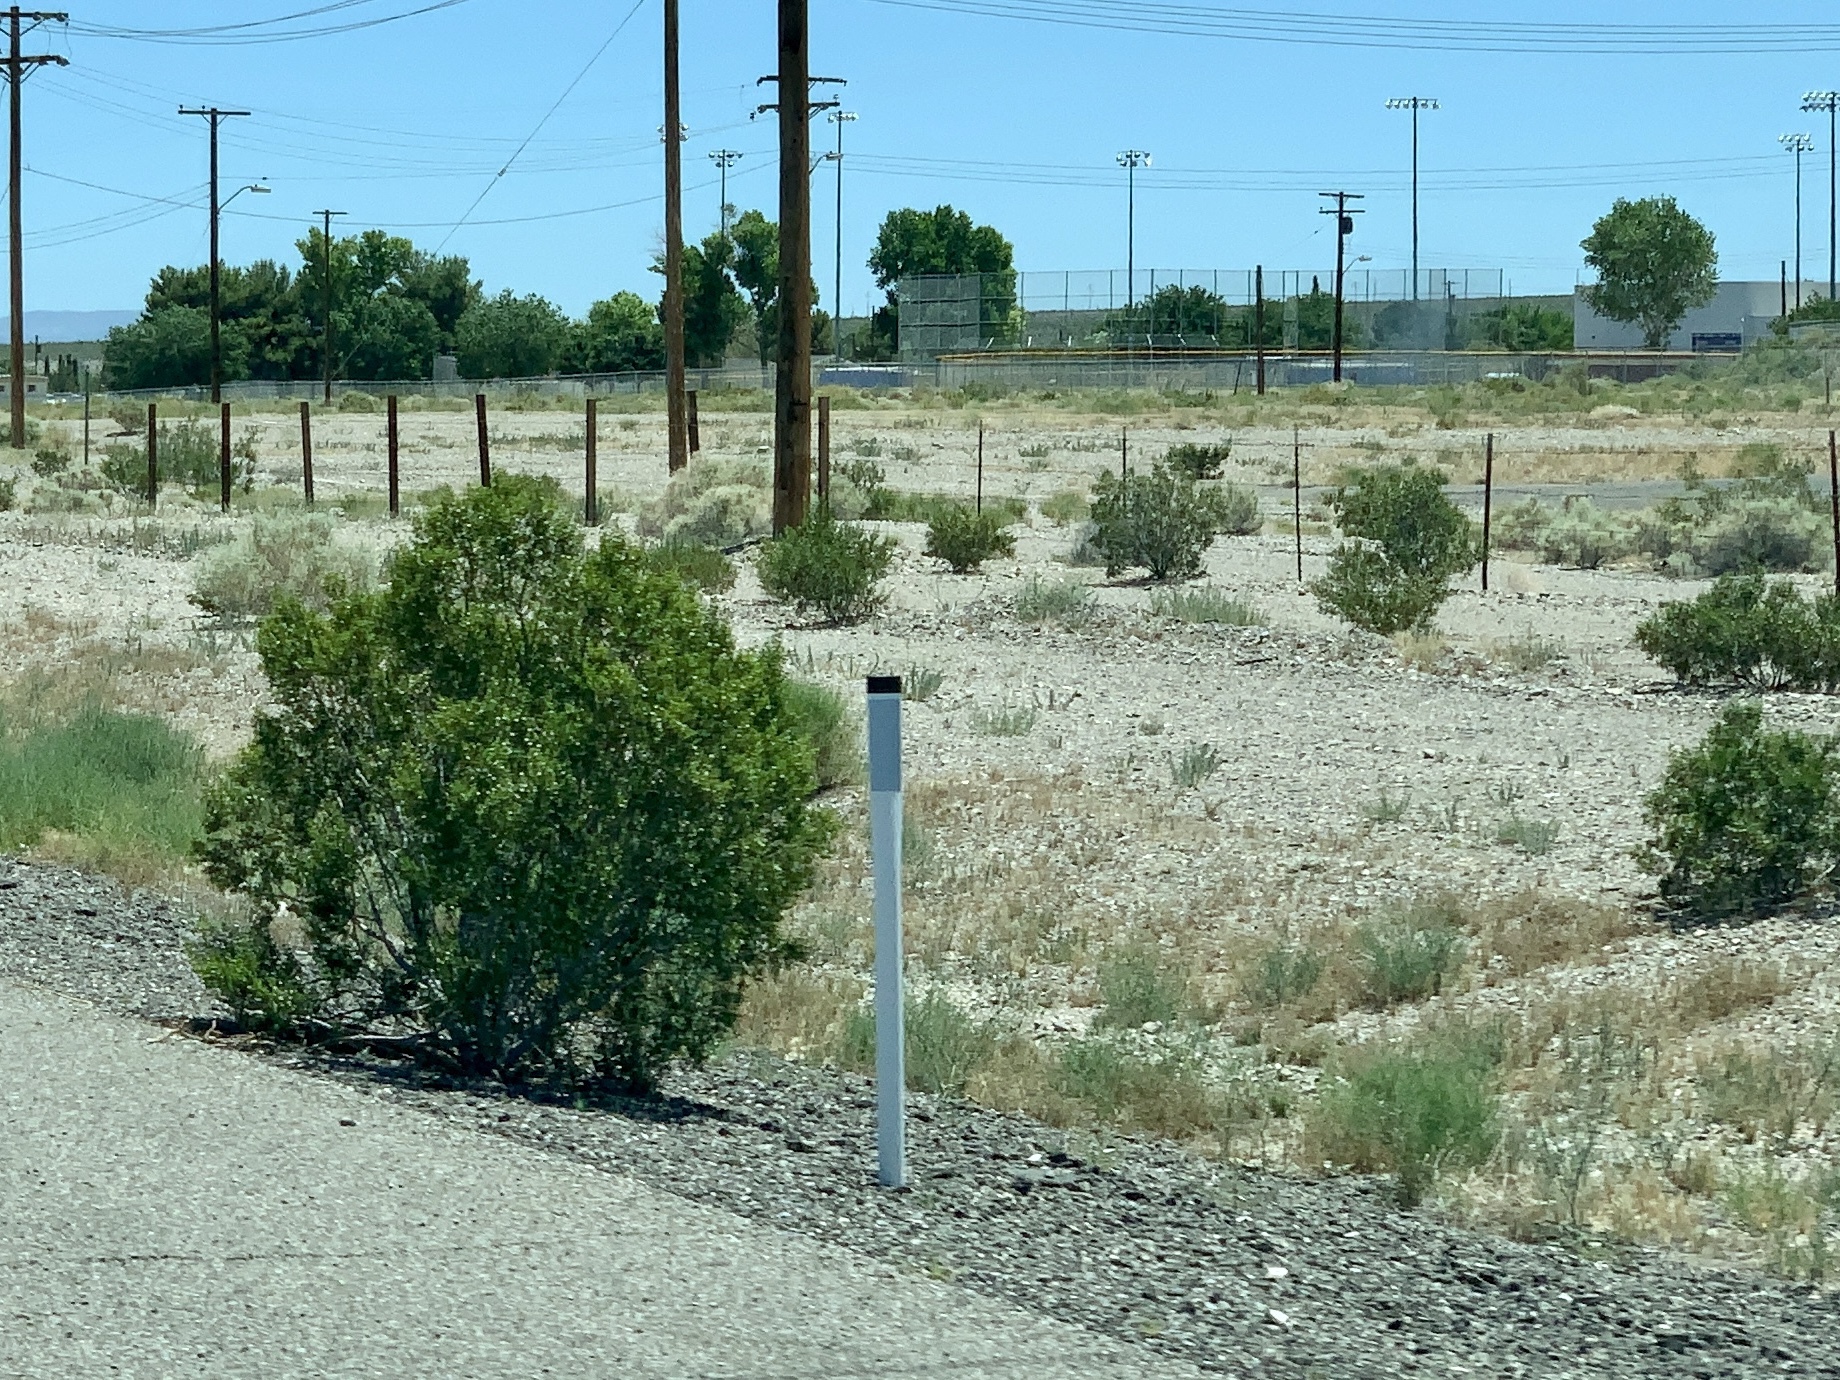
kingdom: Plantae
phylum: Tracheophyta
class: Magnoliopsida
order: Zygophyllales
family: Zygophyllaceae
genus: Larrea
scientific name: Larrea tridentata
